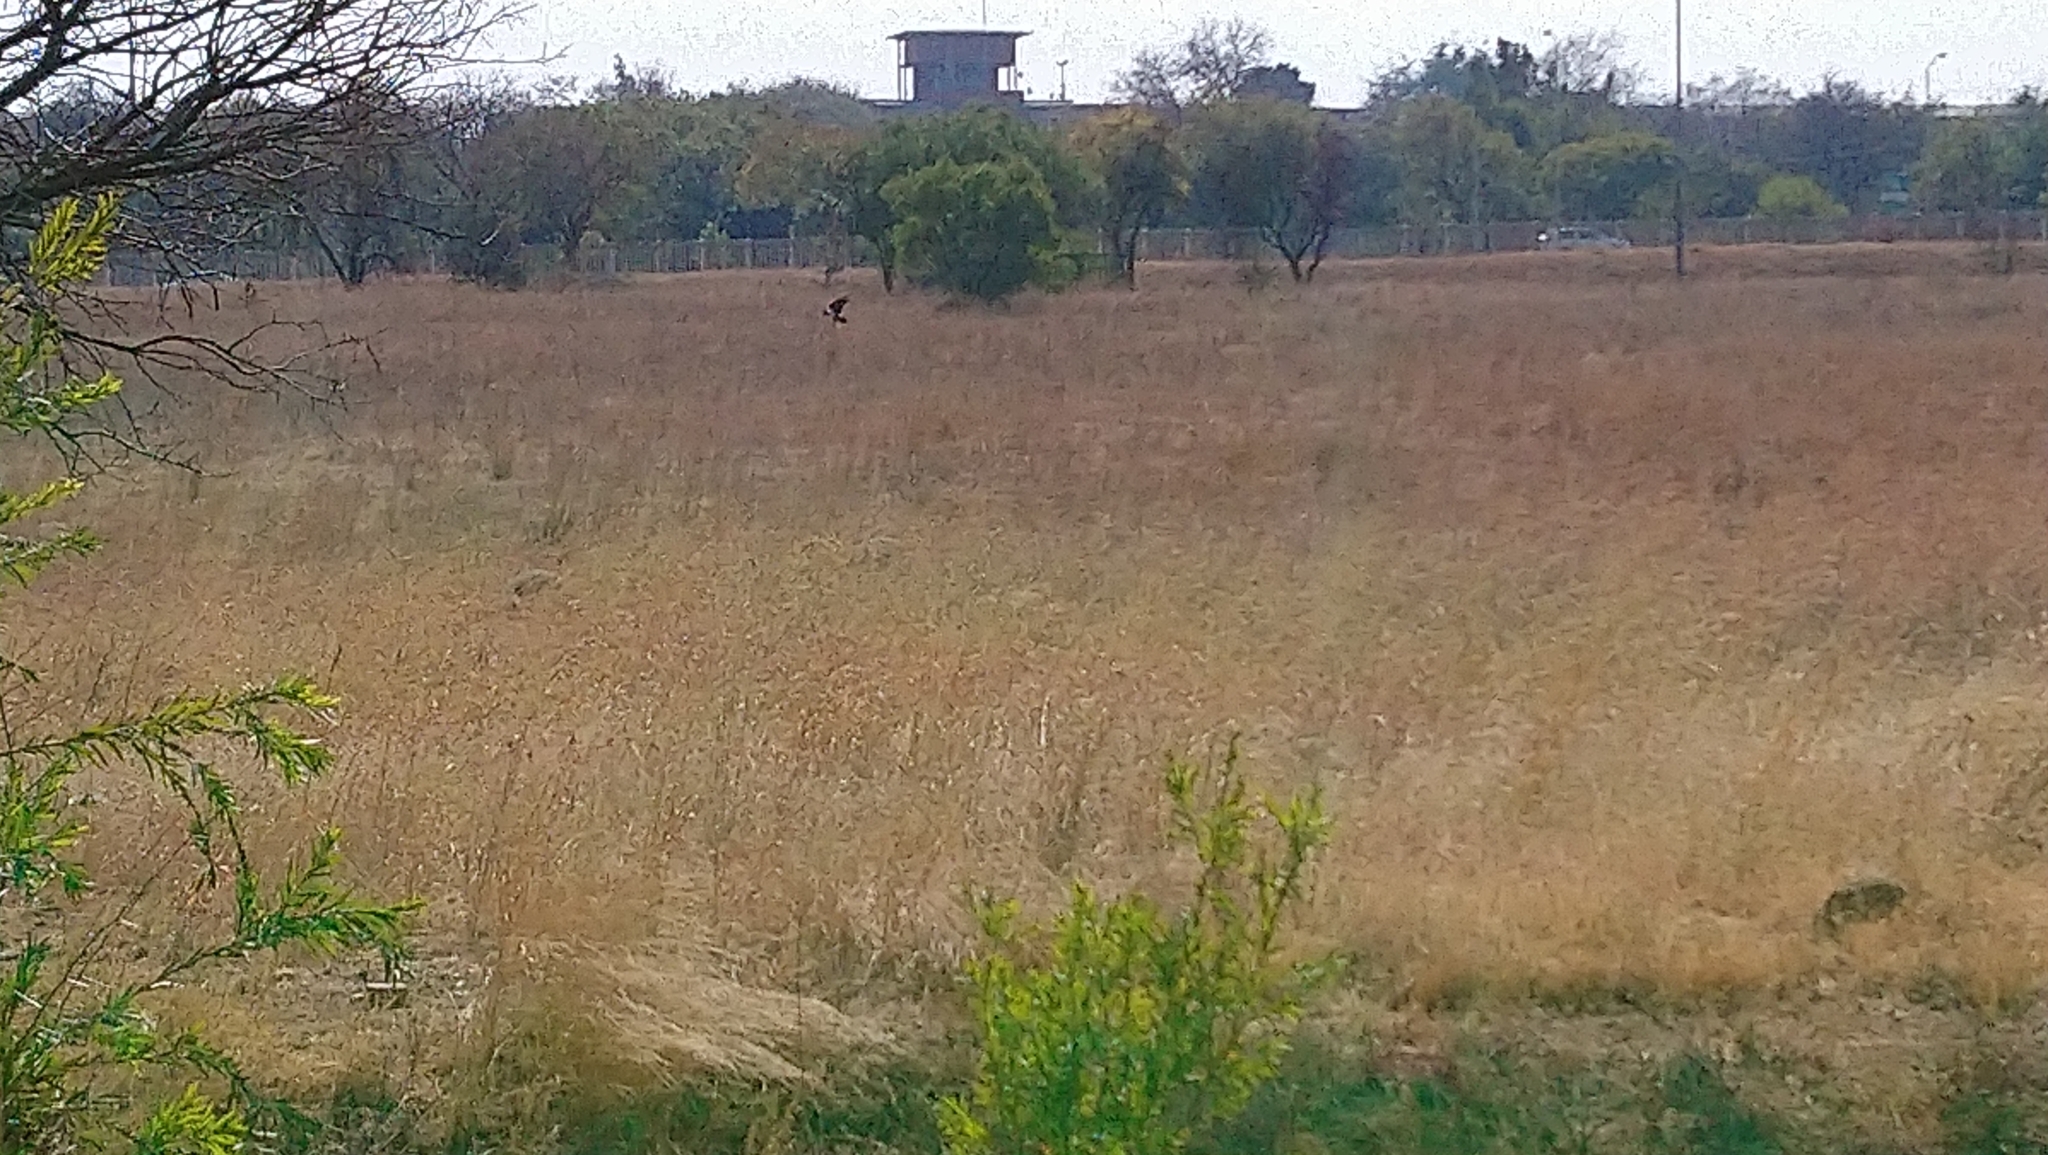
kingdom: Animalia
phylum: Chordata
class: Aves
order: Passeriformes
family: Corvidae
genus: Corvus
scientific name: Corvus albus
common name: Pied crow
